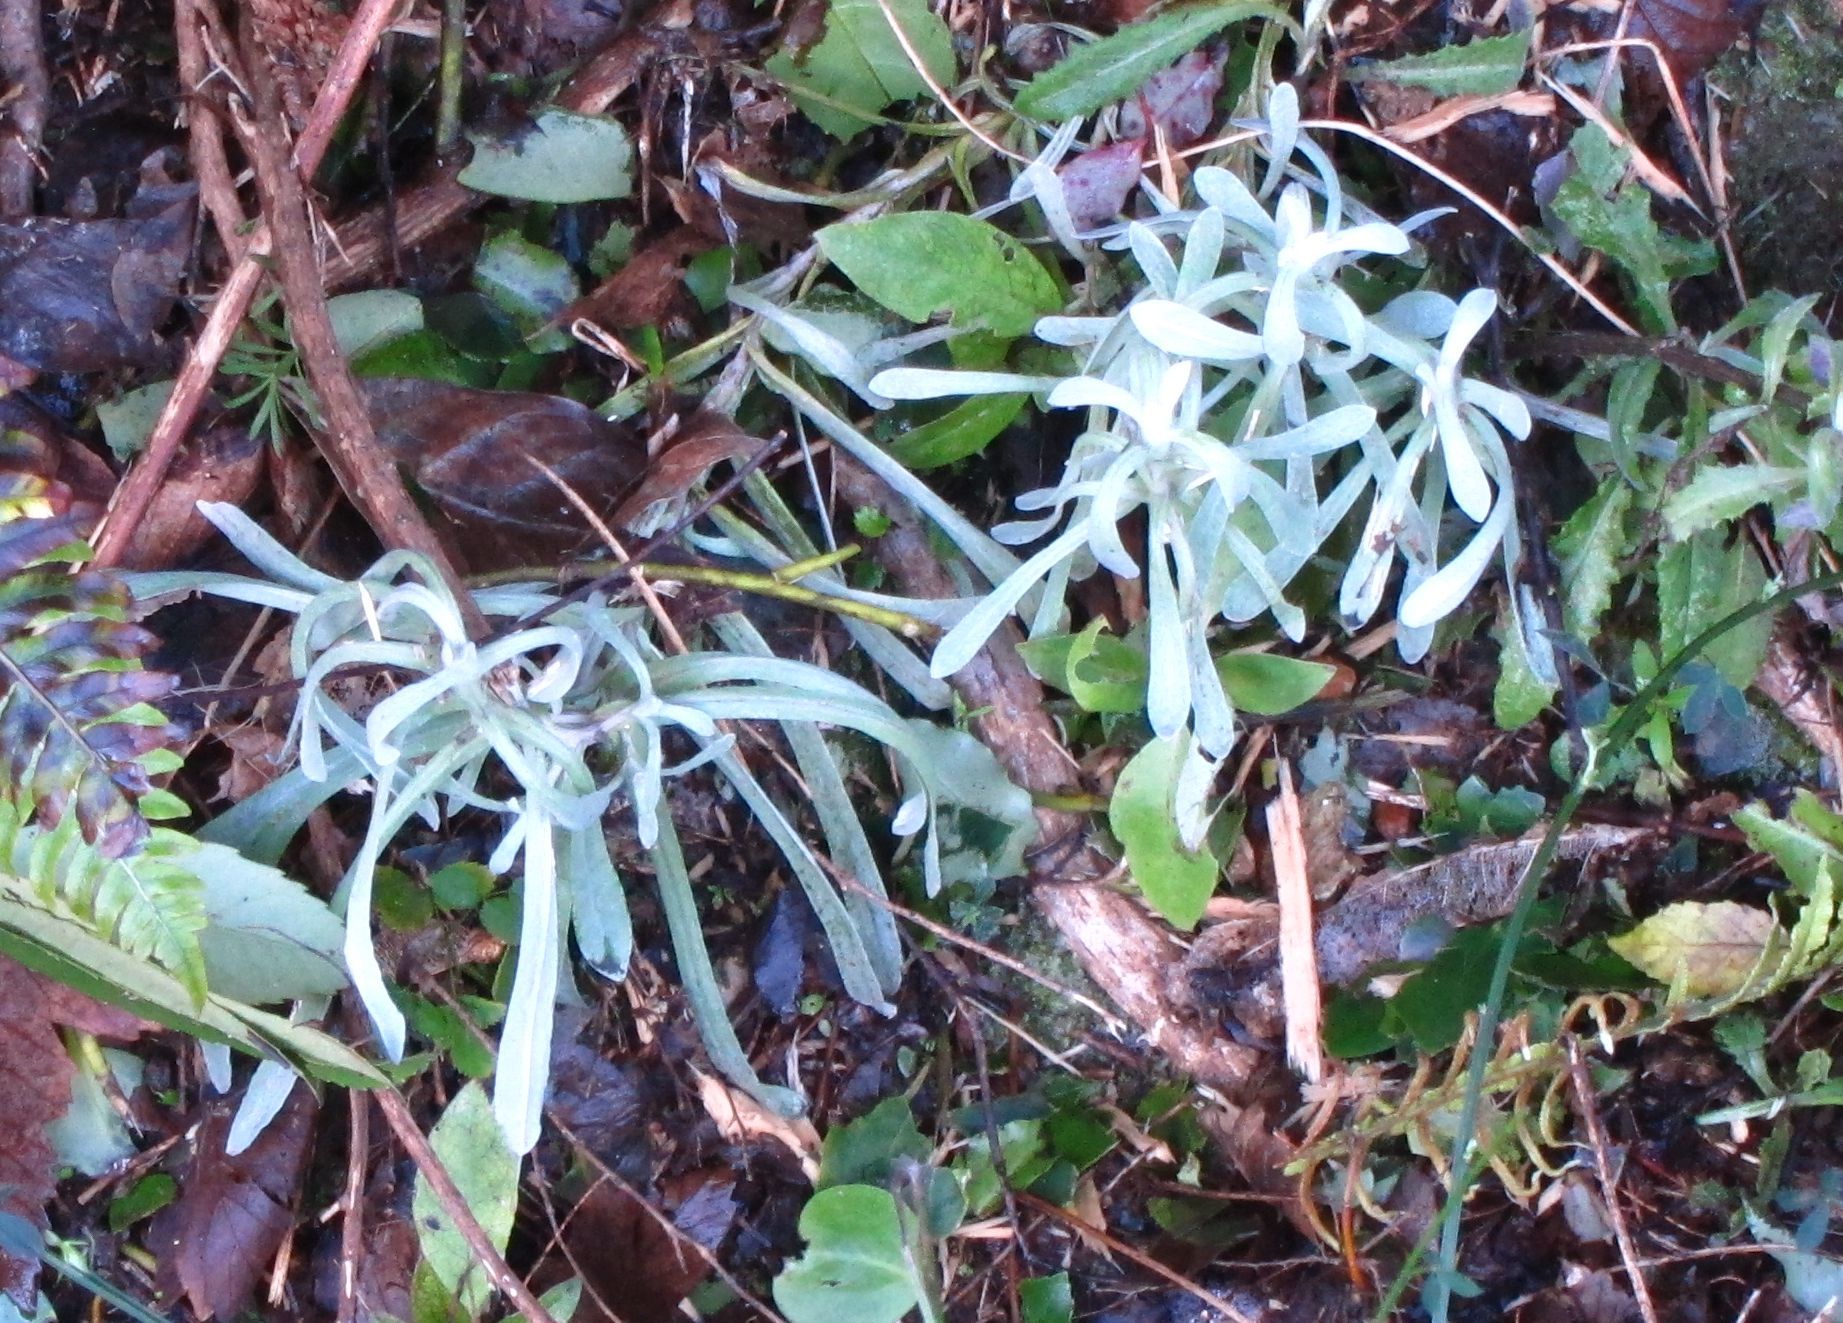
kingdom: Plantae
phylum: Tracheophyta
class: Magnoliopsida
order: Asterales
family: Asteraceae
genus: Helichrysum
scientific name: Helichrysum luteoalbum
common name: Daisy
